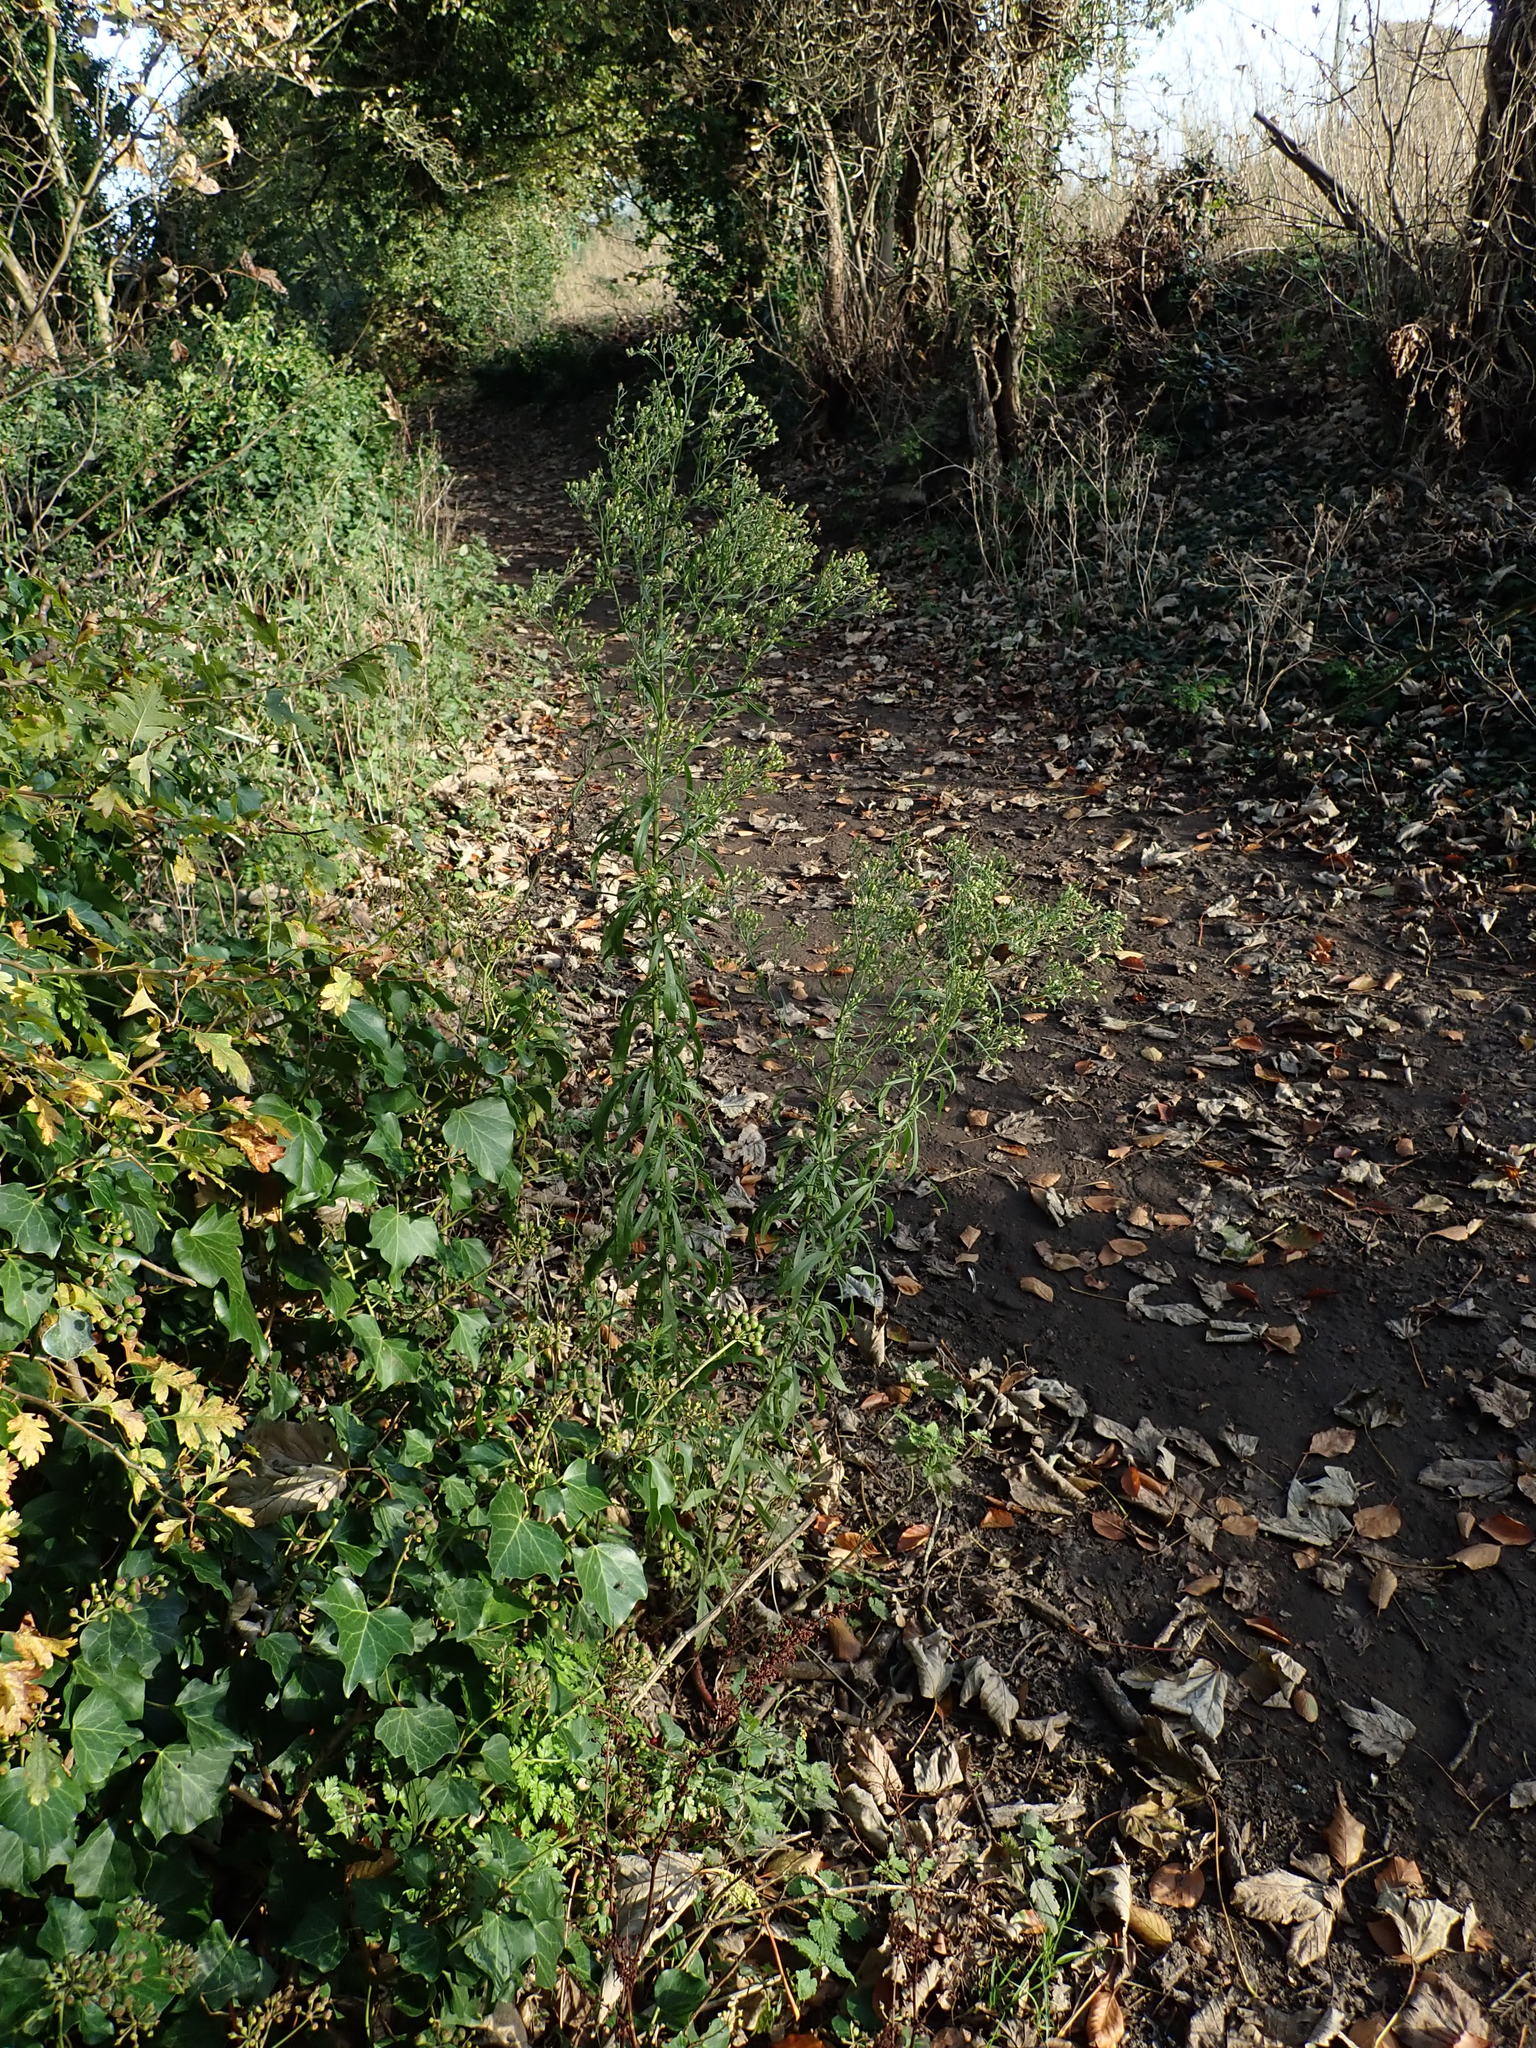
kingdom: Plantae
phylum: Tracheophyta
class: Magnoliopsida
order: Asterales
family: Asteraceae
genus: Erigeron
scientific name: Erigeron sumatrensis
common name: Daisy
